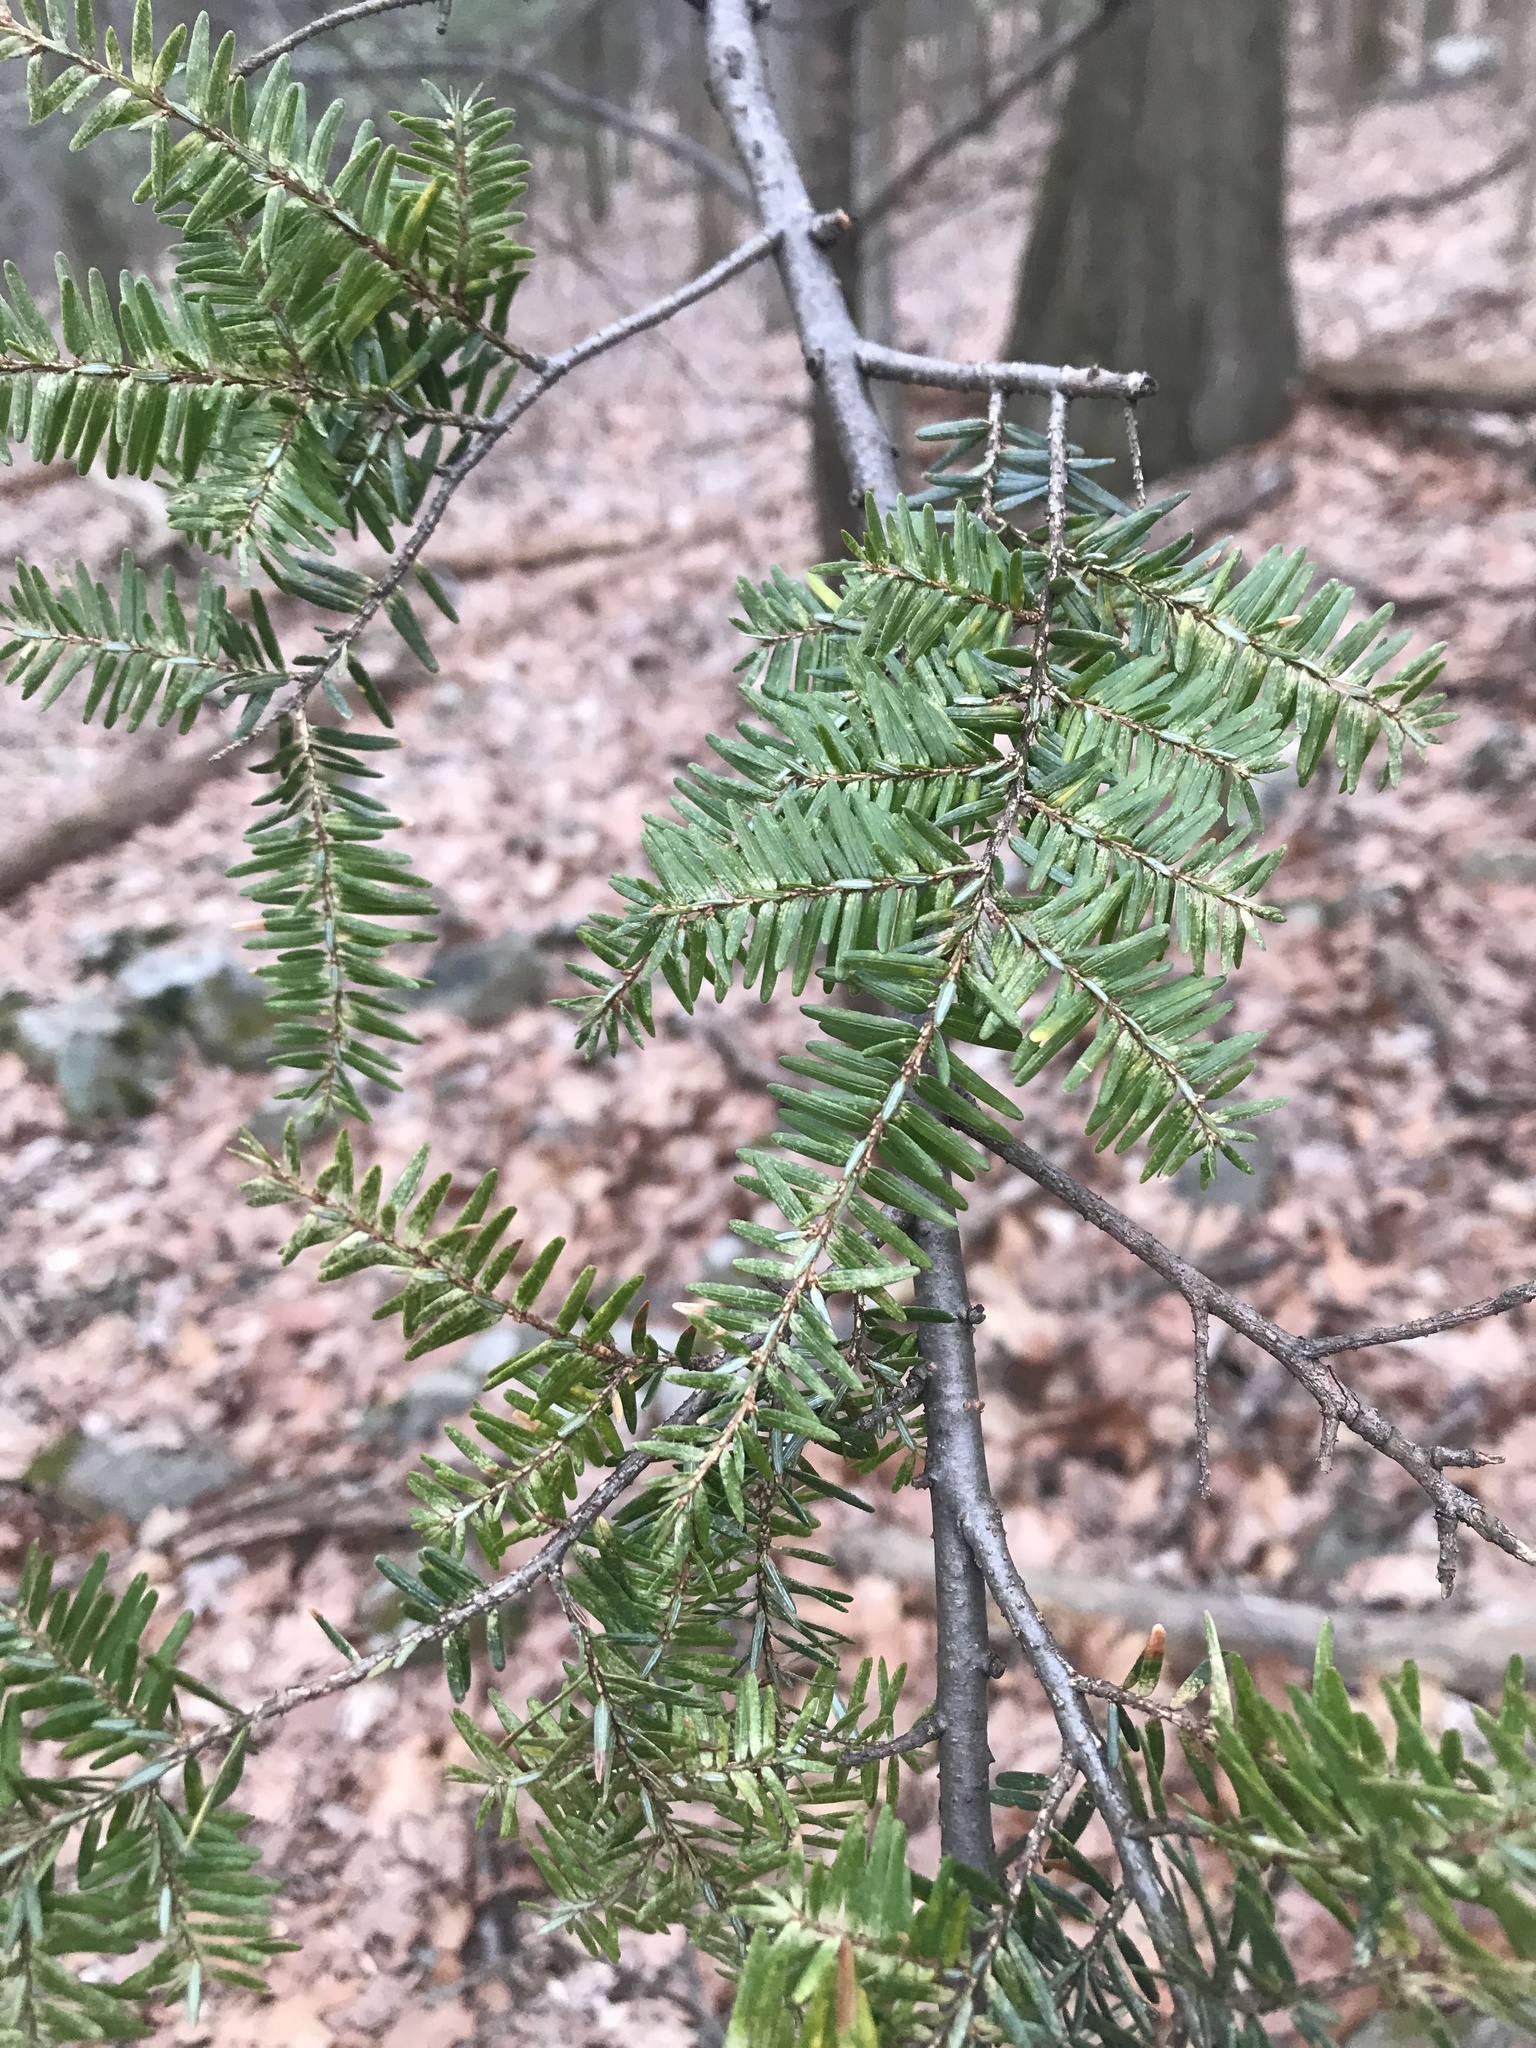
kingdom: Plantae
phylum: Tracheophyta
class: Pinopsida
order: Pinales
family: Pinaceae
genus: Tsuga
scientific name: Tsuga canadensis
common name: Eastern hemlock
